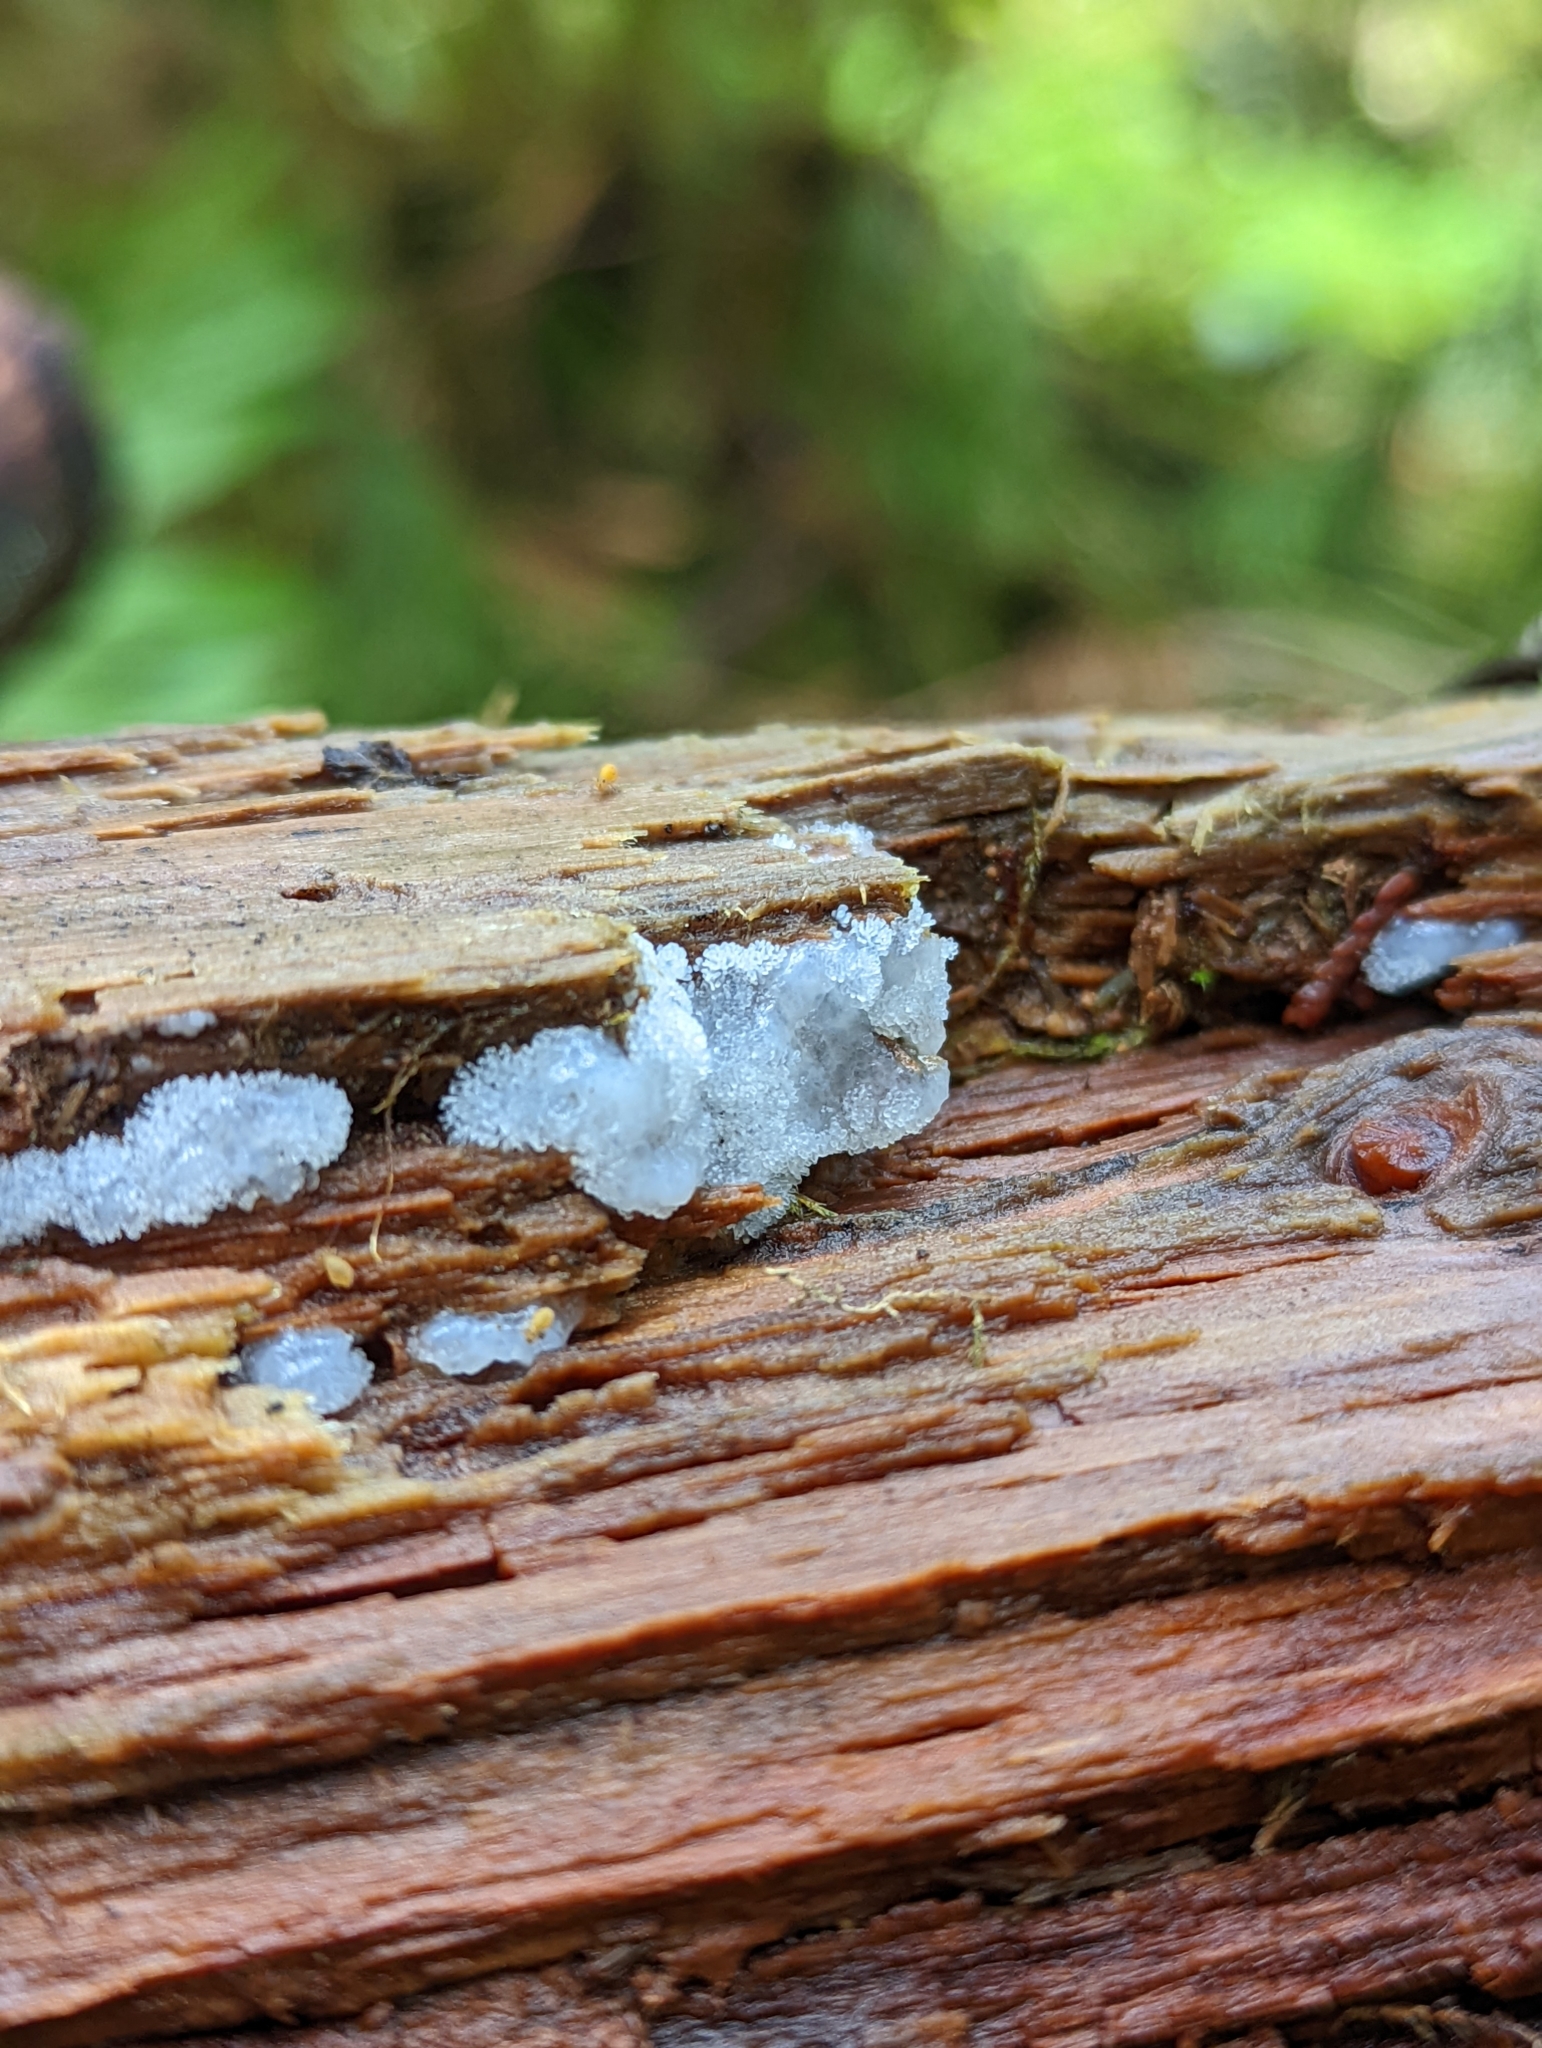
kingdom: Protozoa
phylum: Mycetozoa
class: Protosteliomycetes
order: Ceratiomyxales
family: Ceratiomyxaceae
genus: Ceratiomyxa
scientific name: Ceratiomyxa fruticulosa
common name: Honeycomb coral slime mold
